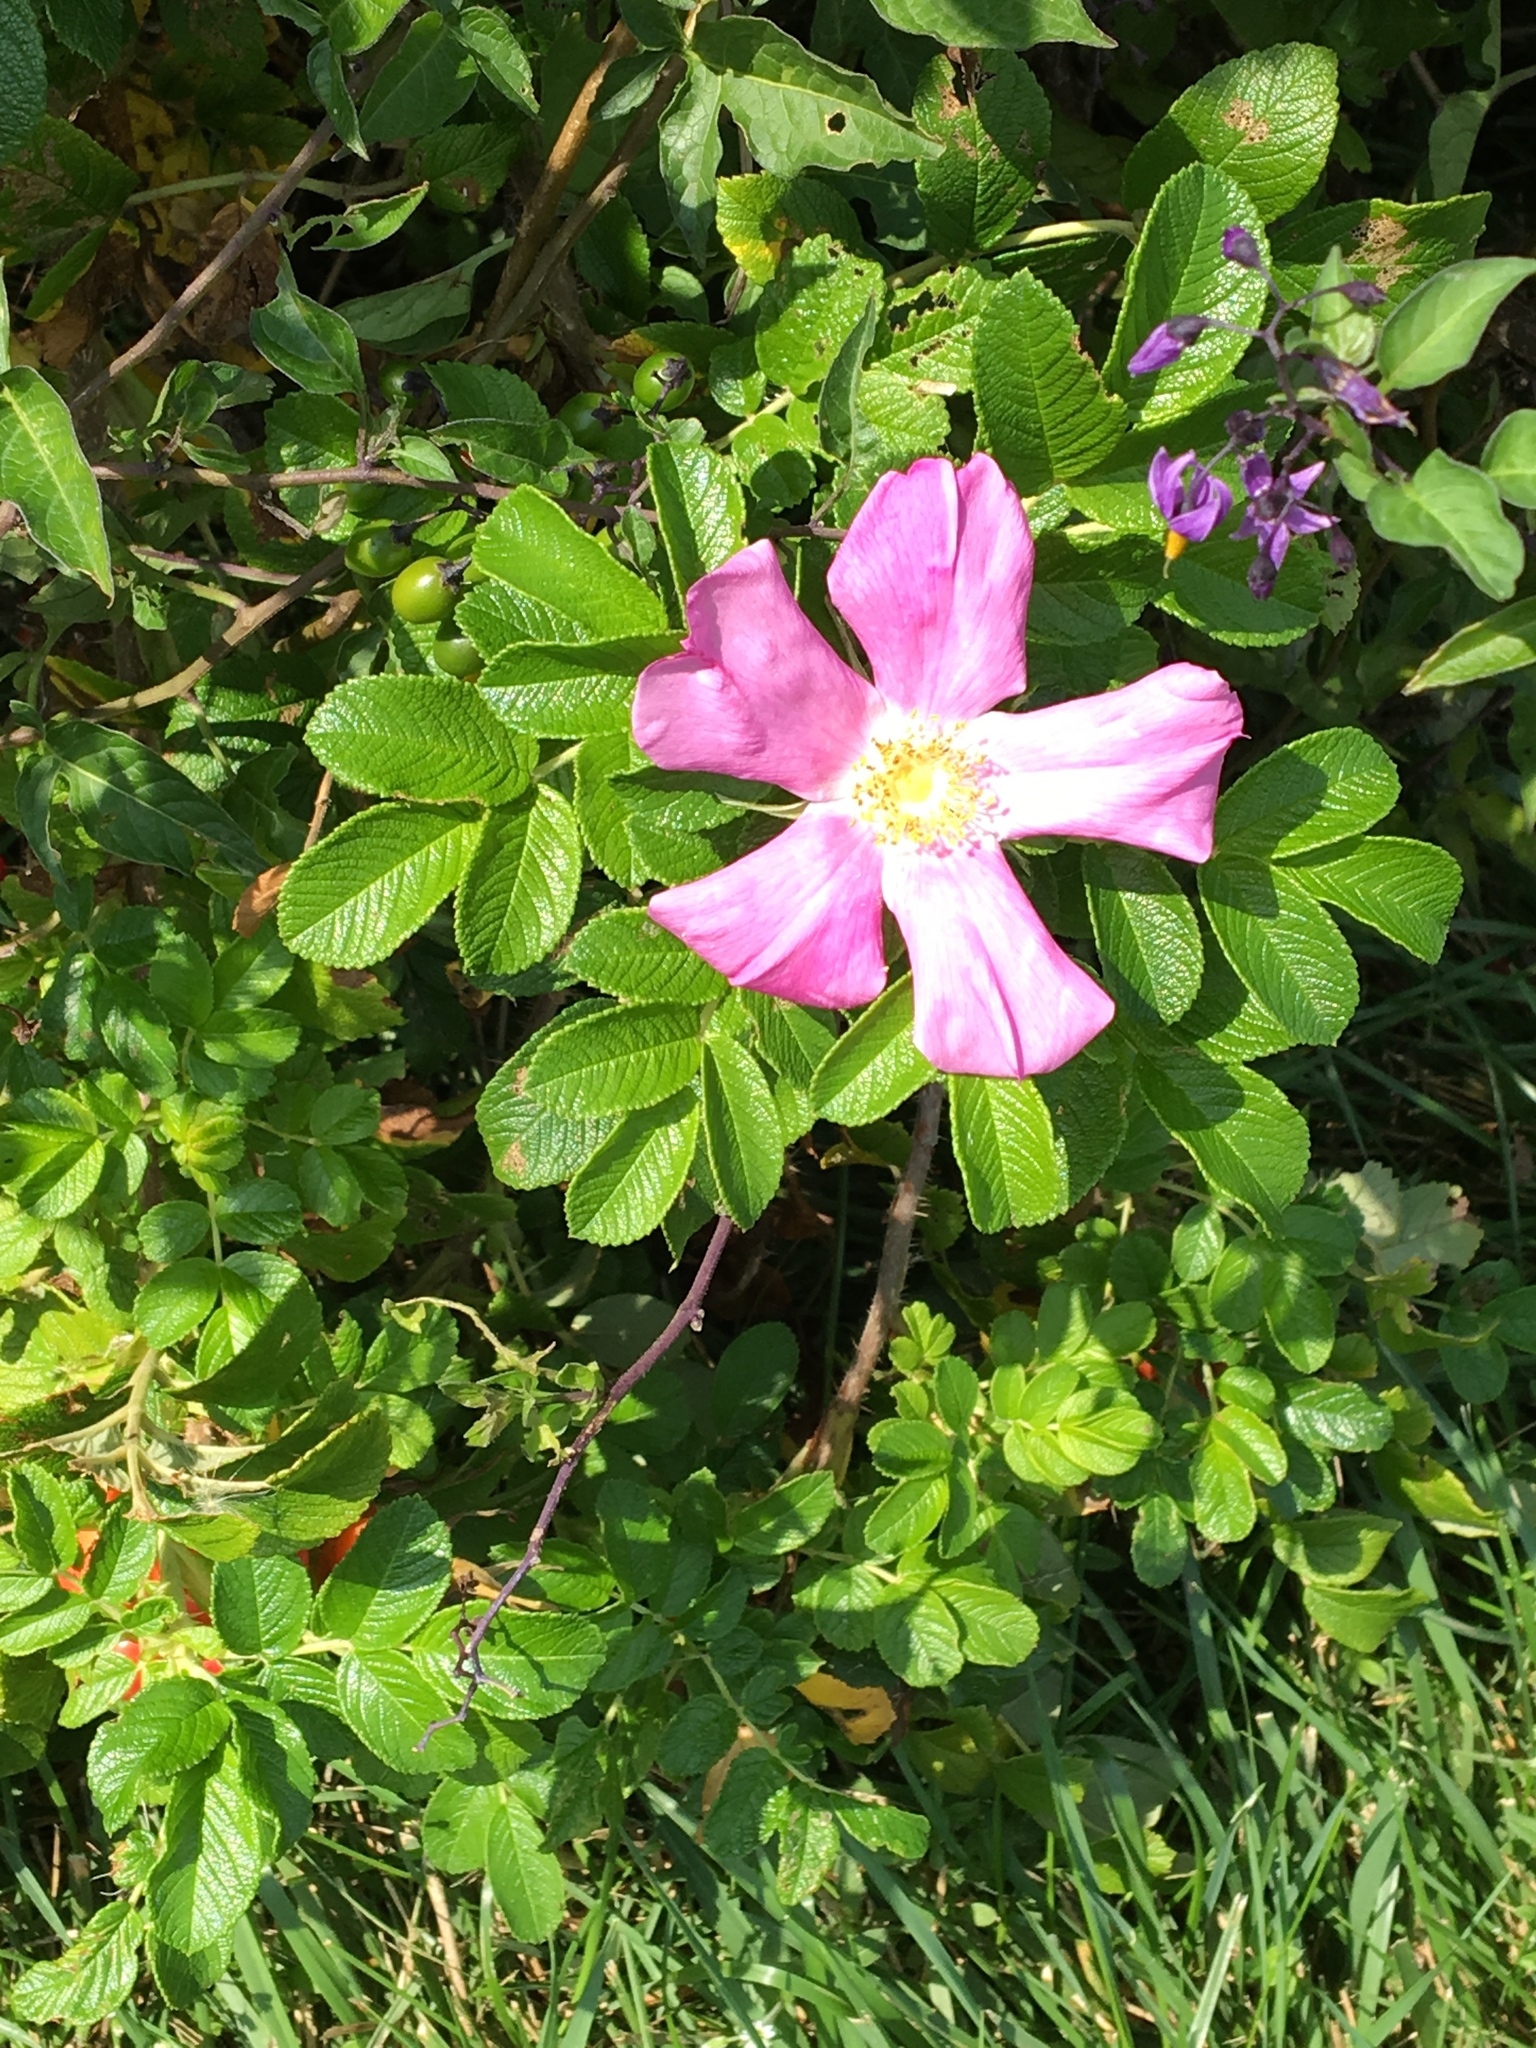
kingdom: Plantae
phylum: Tracheophyta
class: Magnoliopsida
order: Rosales
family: Rosaceae
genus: Rosa
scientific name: Rosa rugosa
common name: Japanese rose
